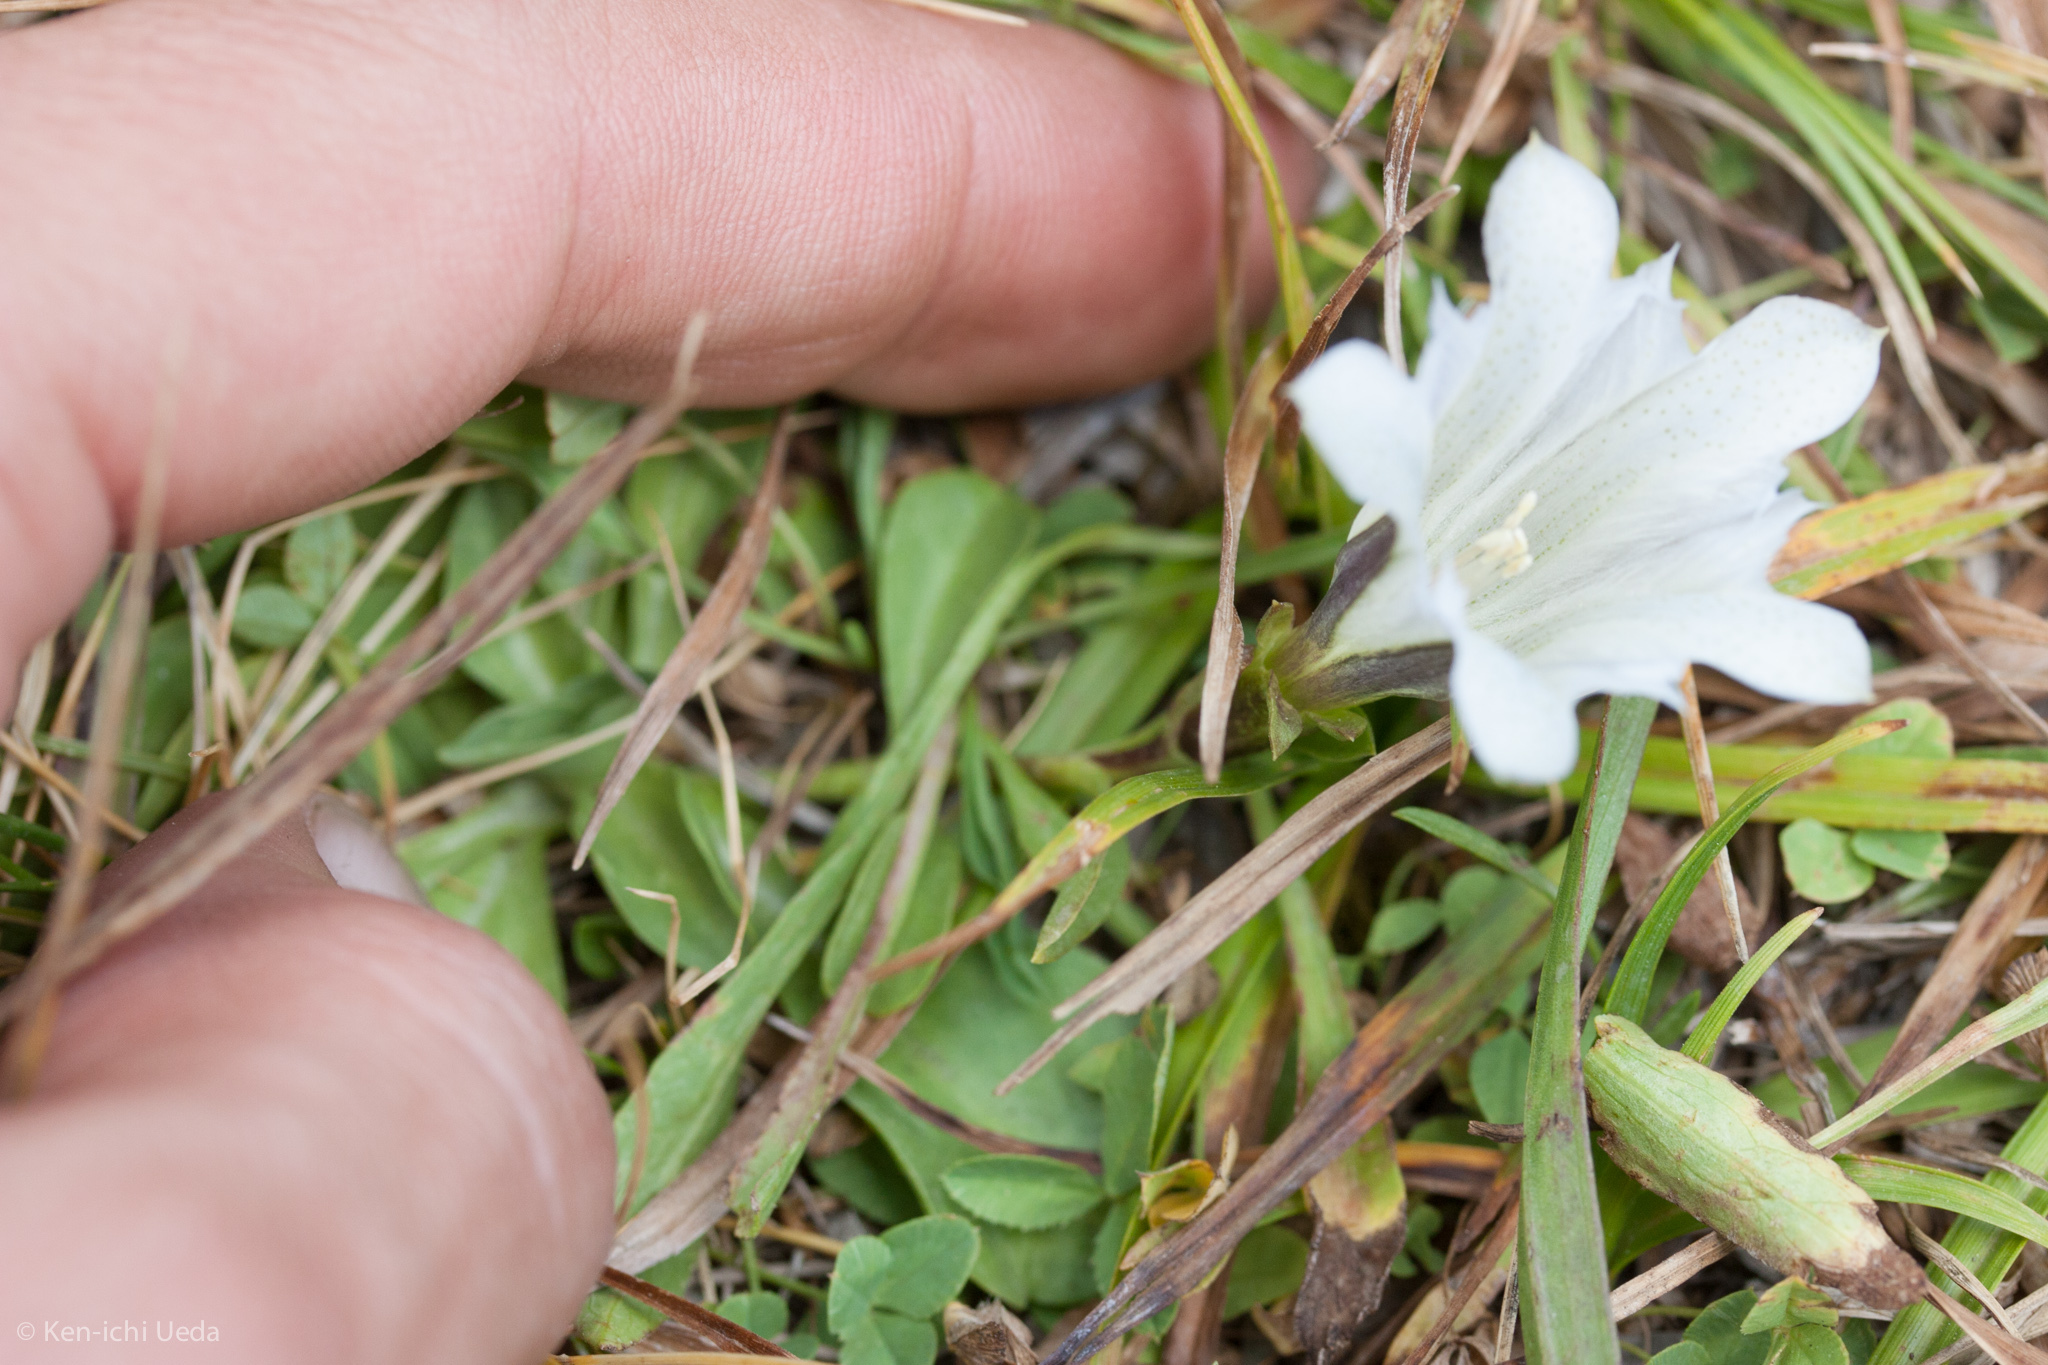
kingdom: Plantae
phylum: Tracheophyta
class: Magnoliopsida
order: Gentianales
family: Gentianaceae
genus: Gentiana
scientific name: Gentiana newberryi
